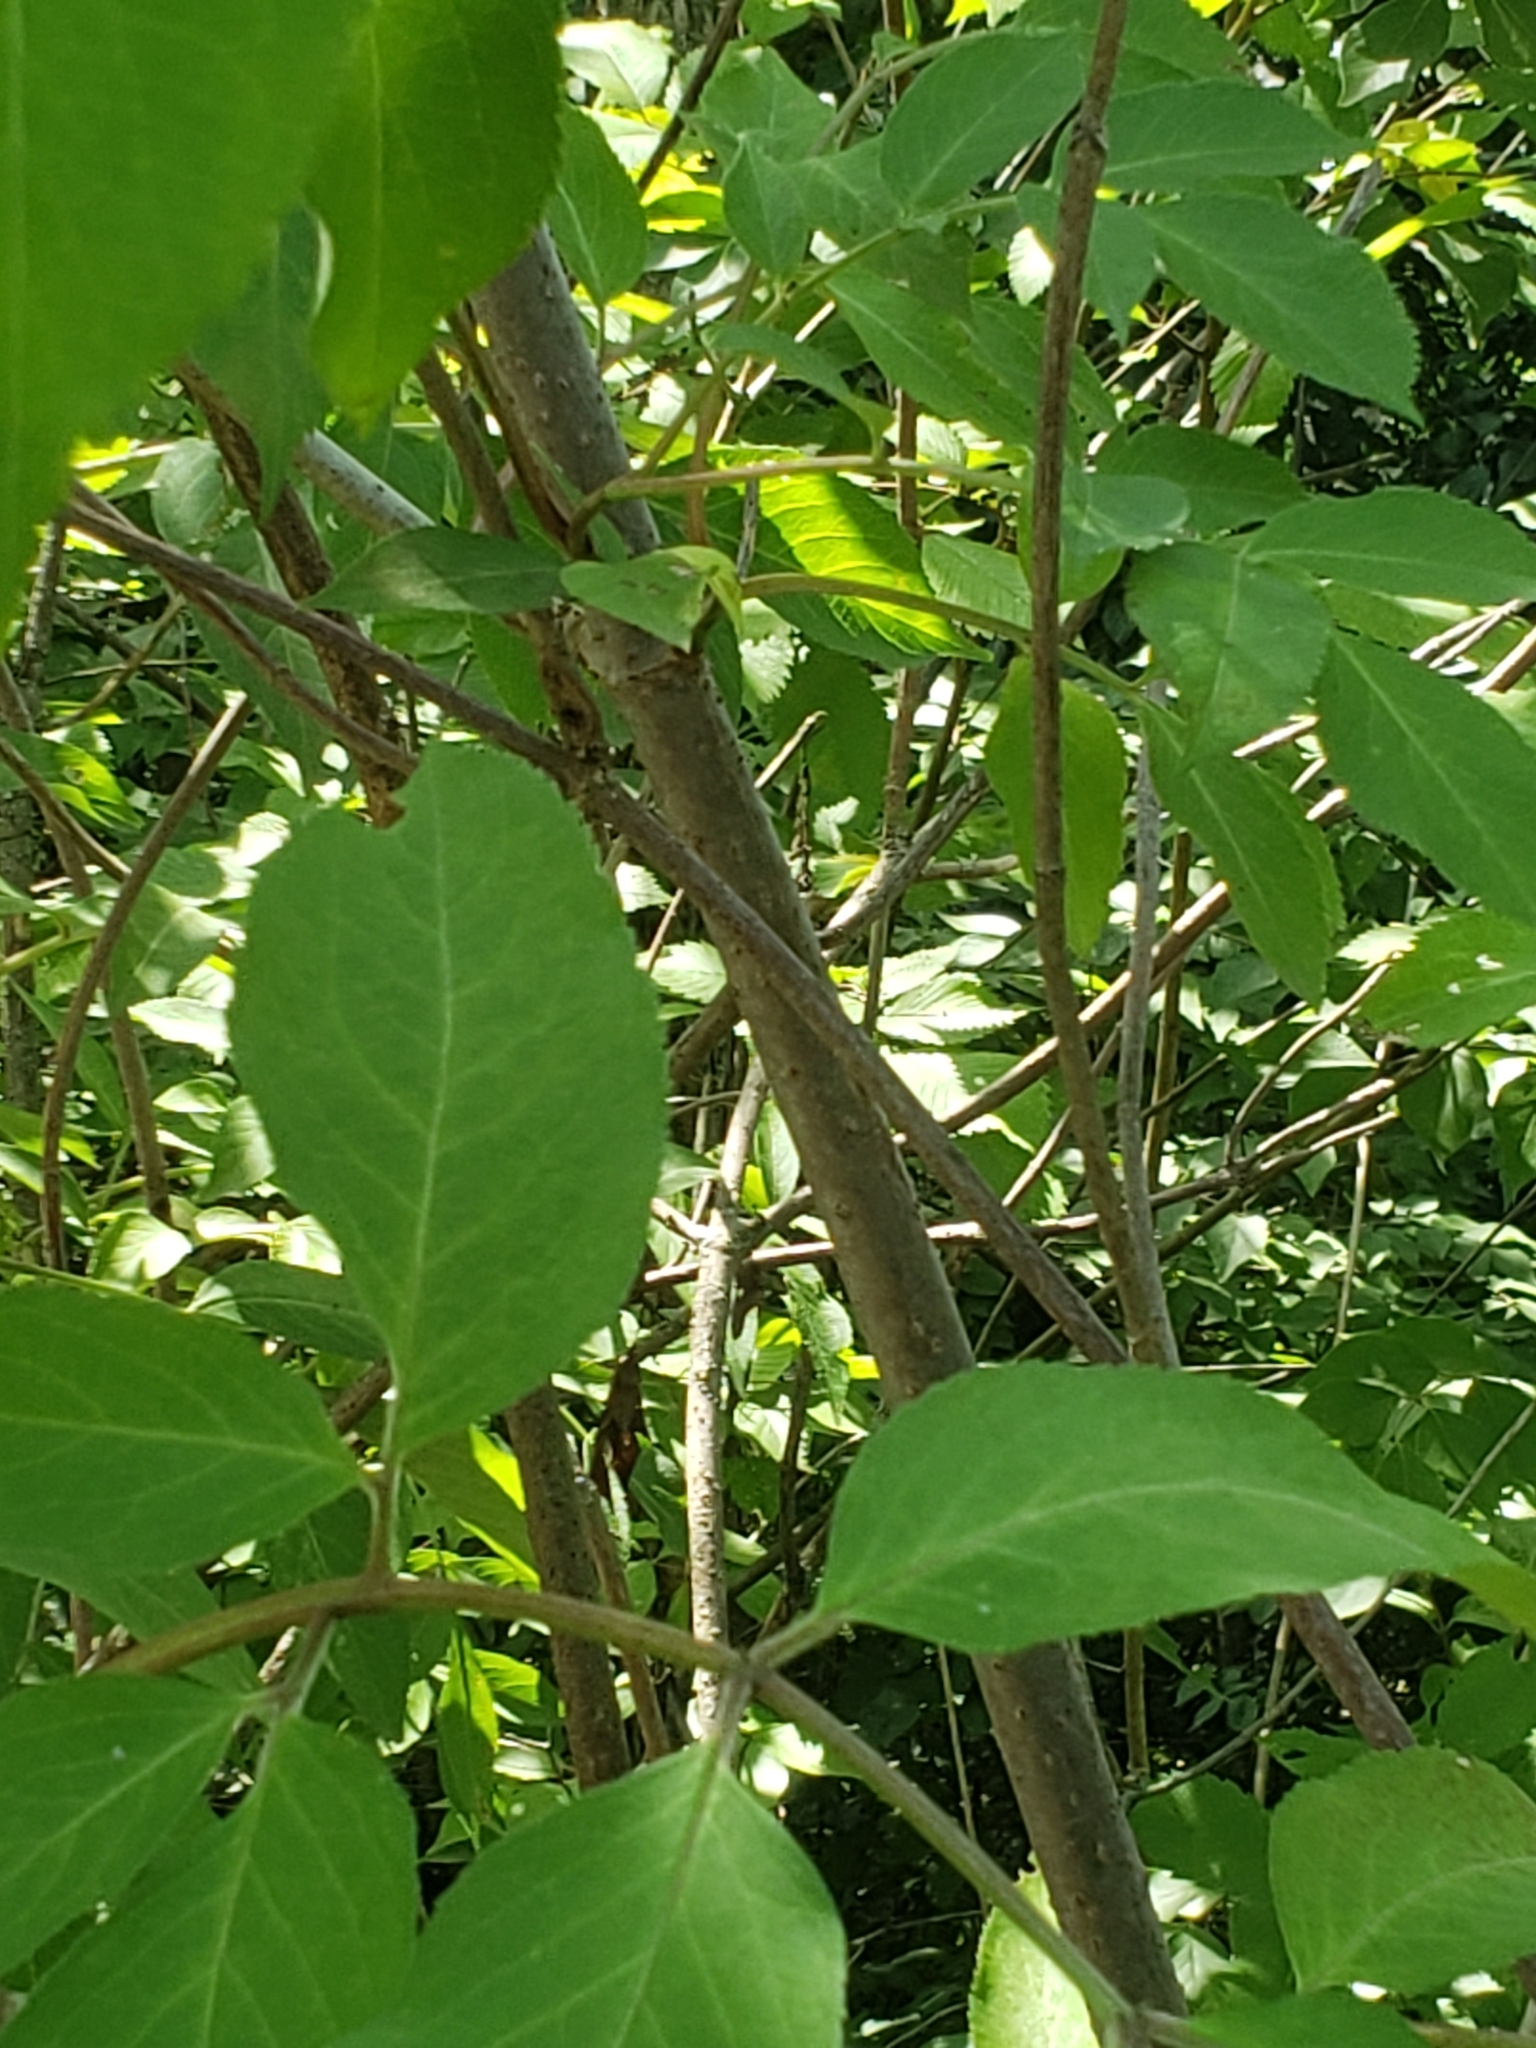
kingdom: Plantae
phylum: Tracheophyta
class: Magnoliopsida
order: Dipsacales
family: Viburnaceae
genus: Sambucus
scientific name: Sambucus canadensis
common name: American elder
